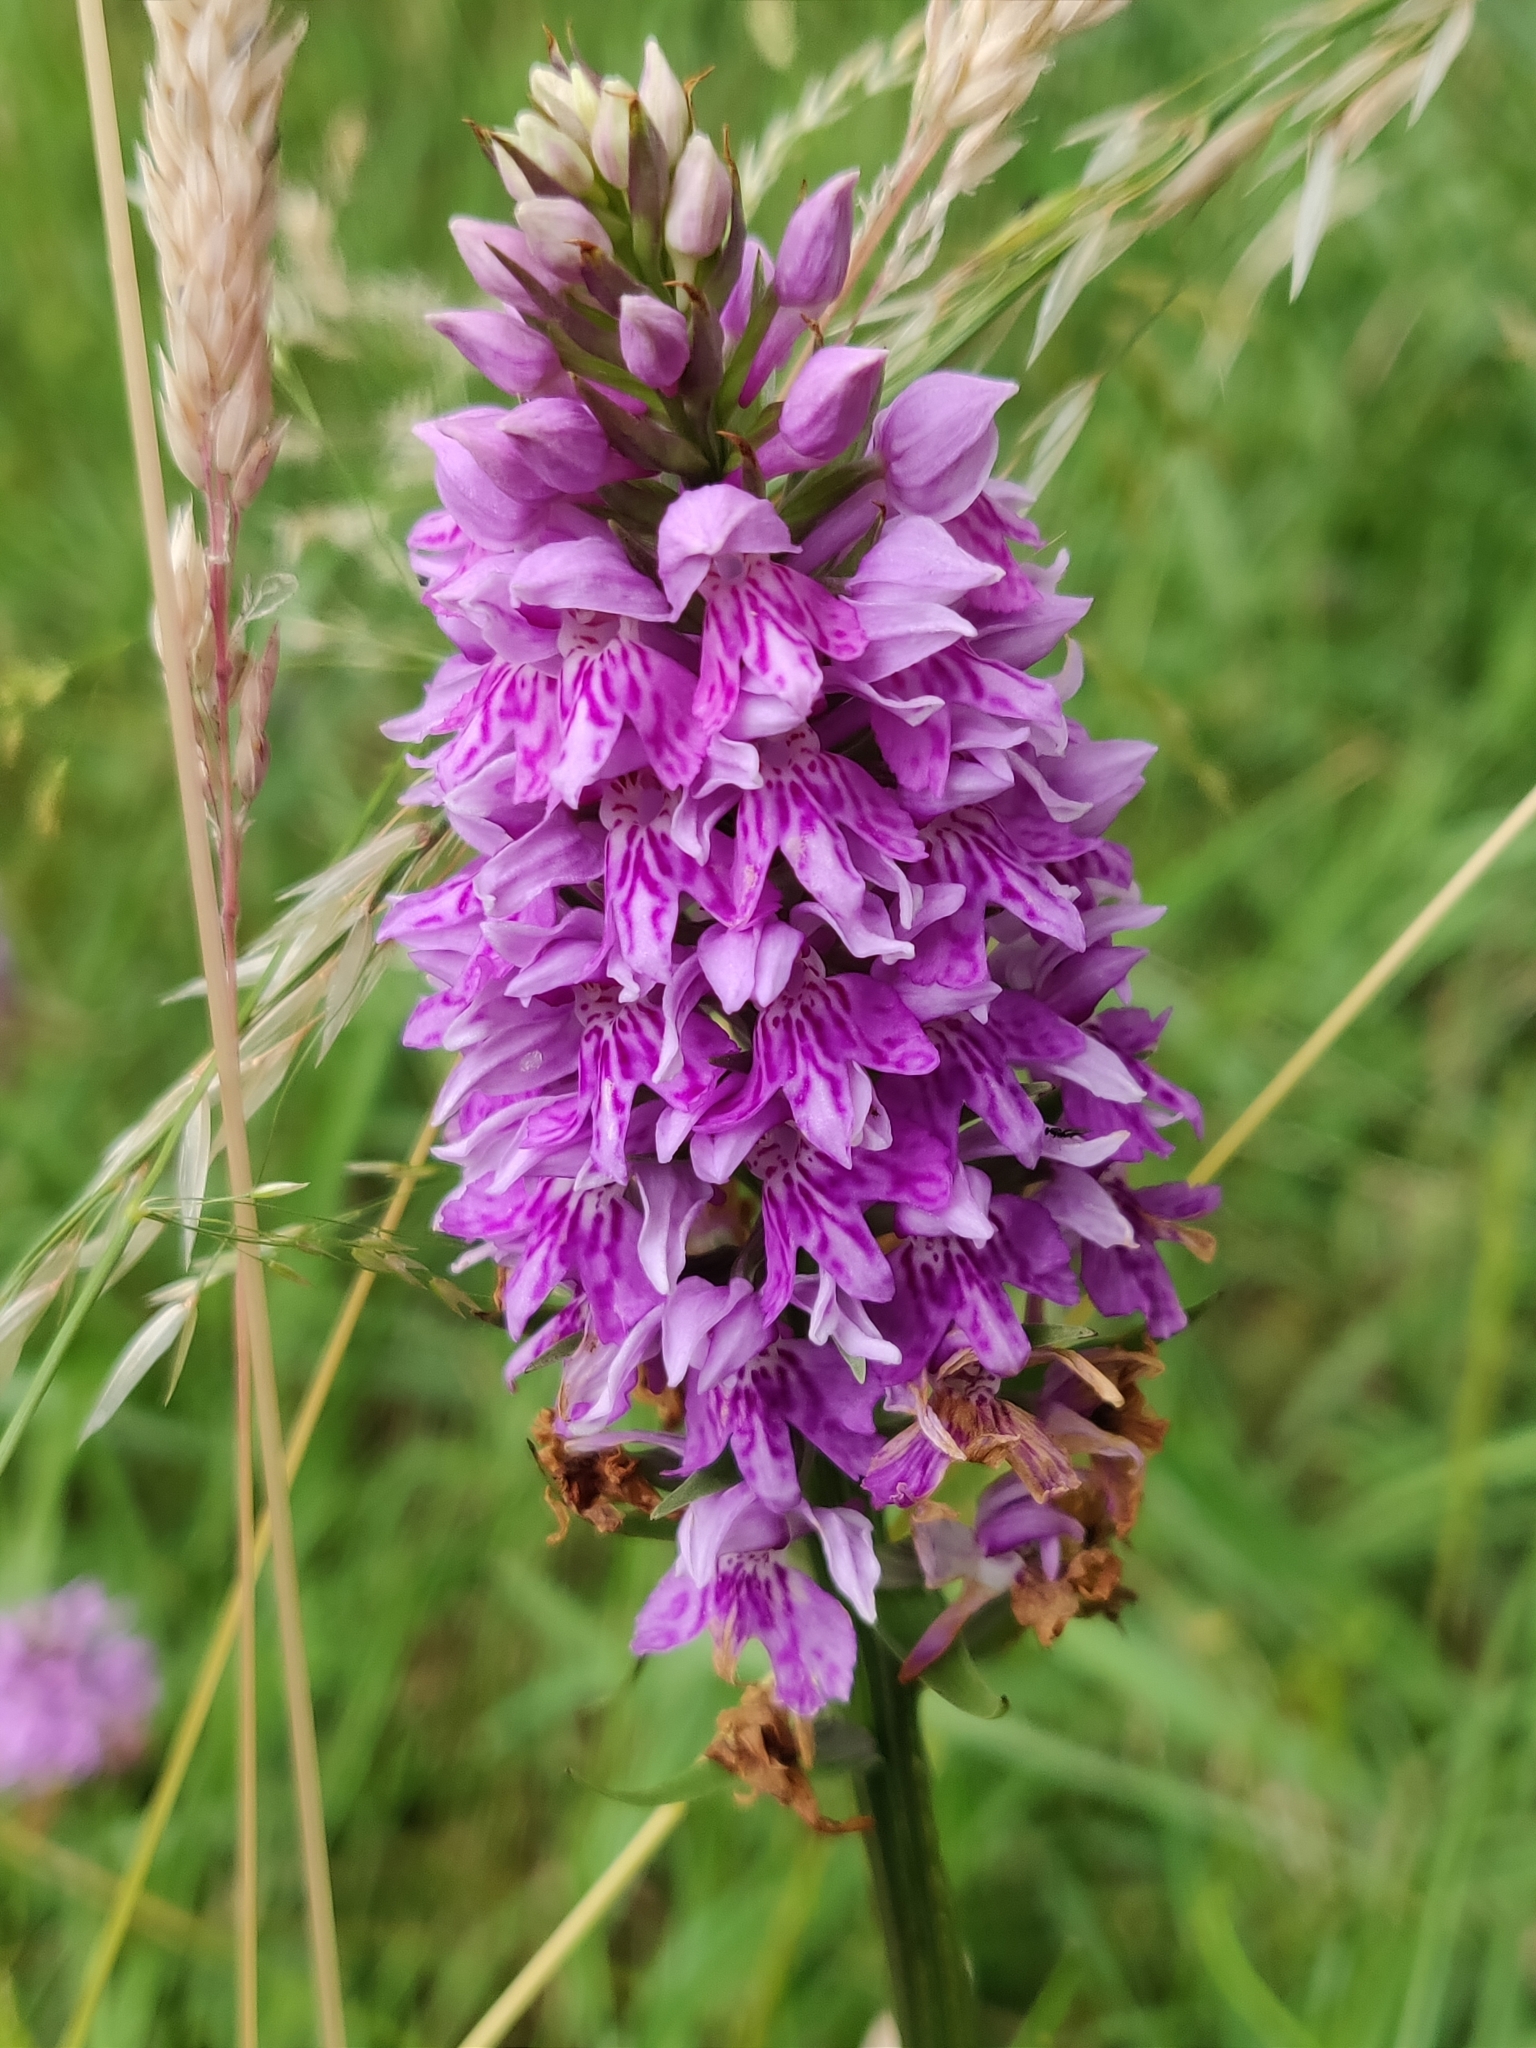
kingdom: Plantae
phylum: Tracheophyta
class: Liliopsida
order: Asparagales
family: Orchidaceae
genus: Dactylorhiza
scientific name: Dactylorhiza maculata
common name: Heath spotted-orchid
